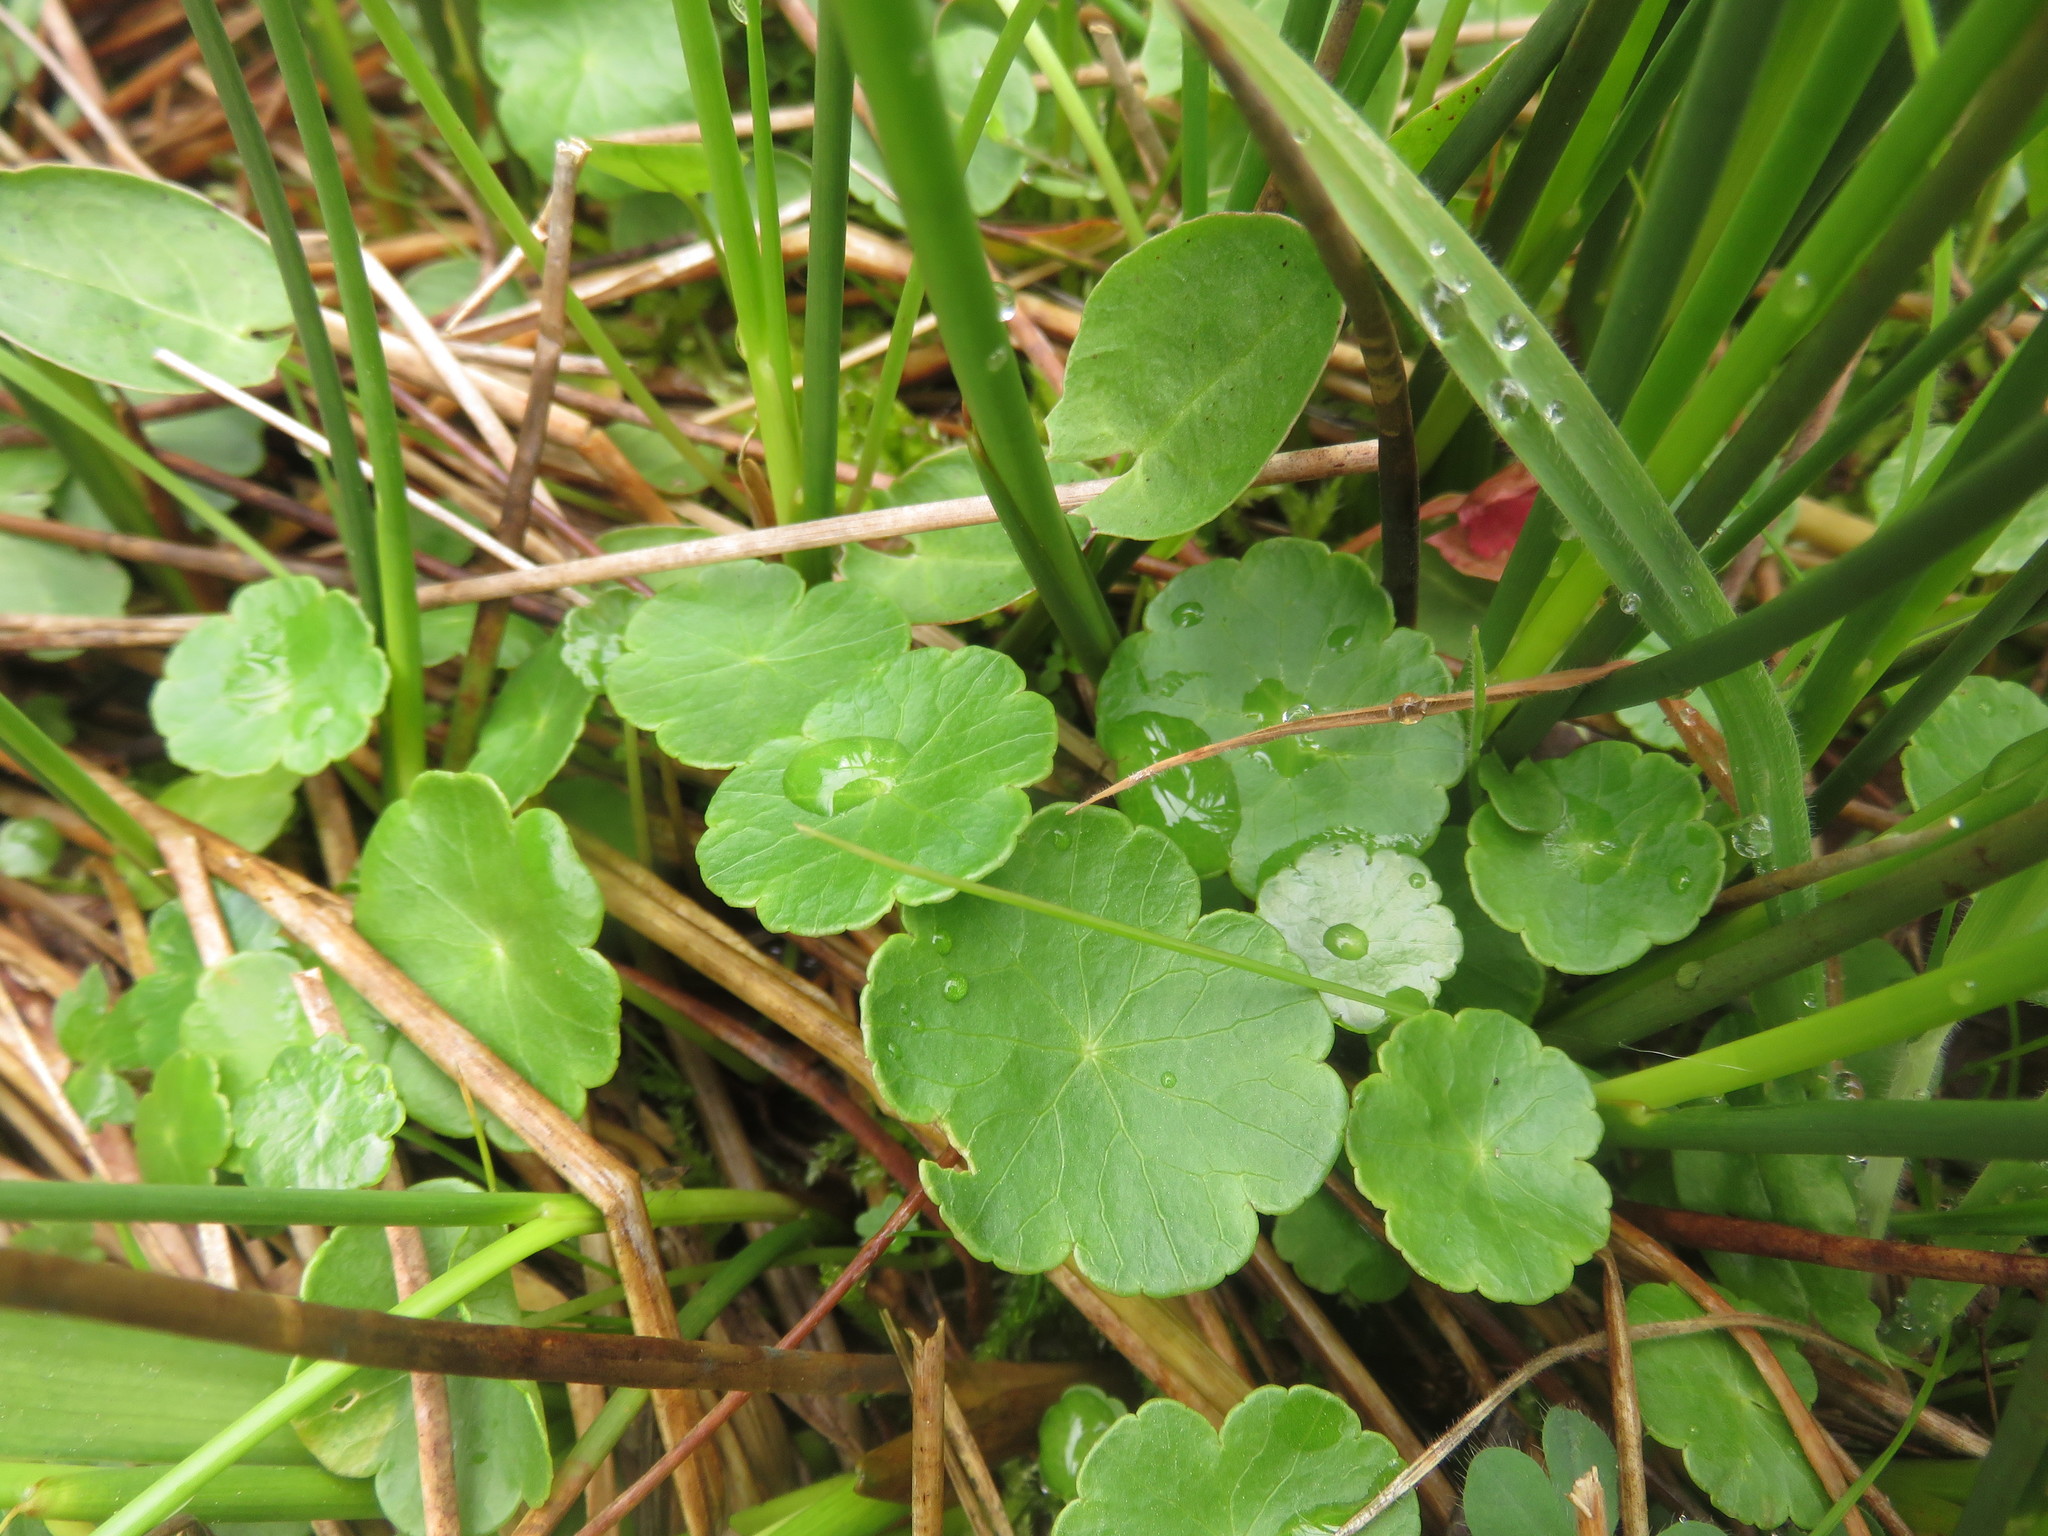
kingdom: Plantae
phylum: Tracheophyta
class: Magnoliopsida
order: Apiales
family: Araliaceae
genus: Hydrocotyle
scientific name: Hydrocotyle vulgaris
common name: Marsh pennywort
